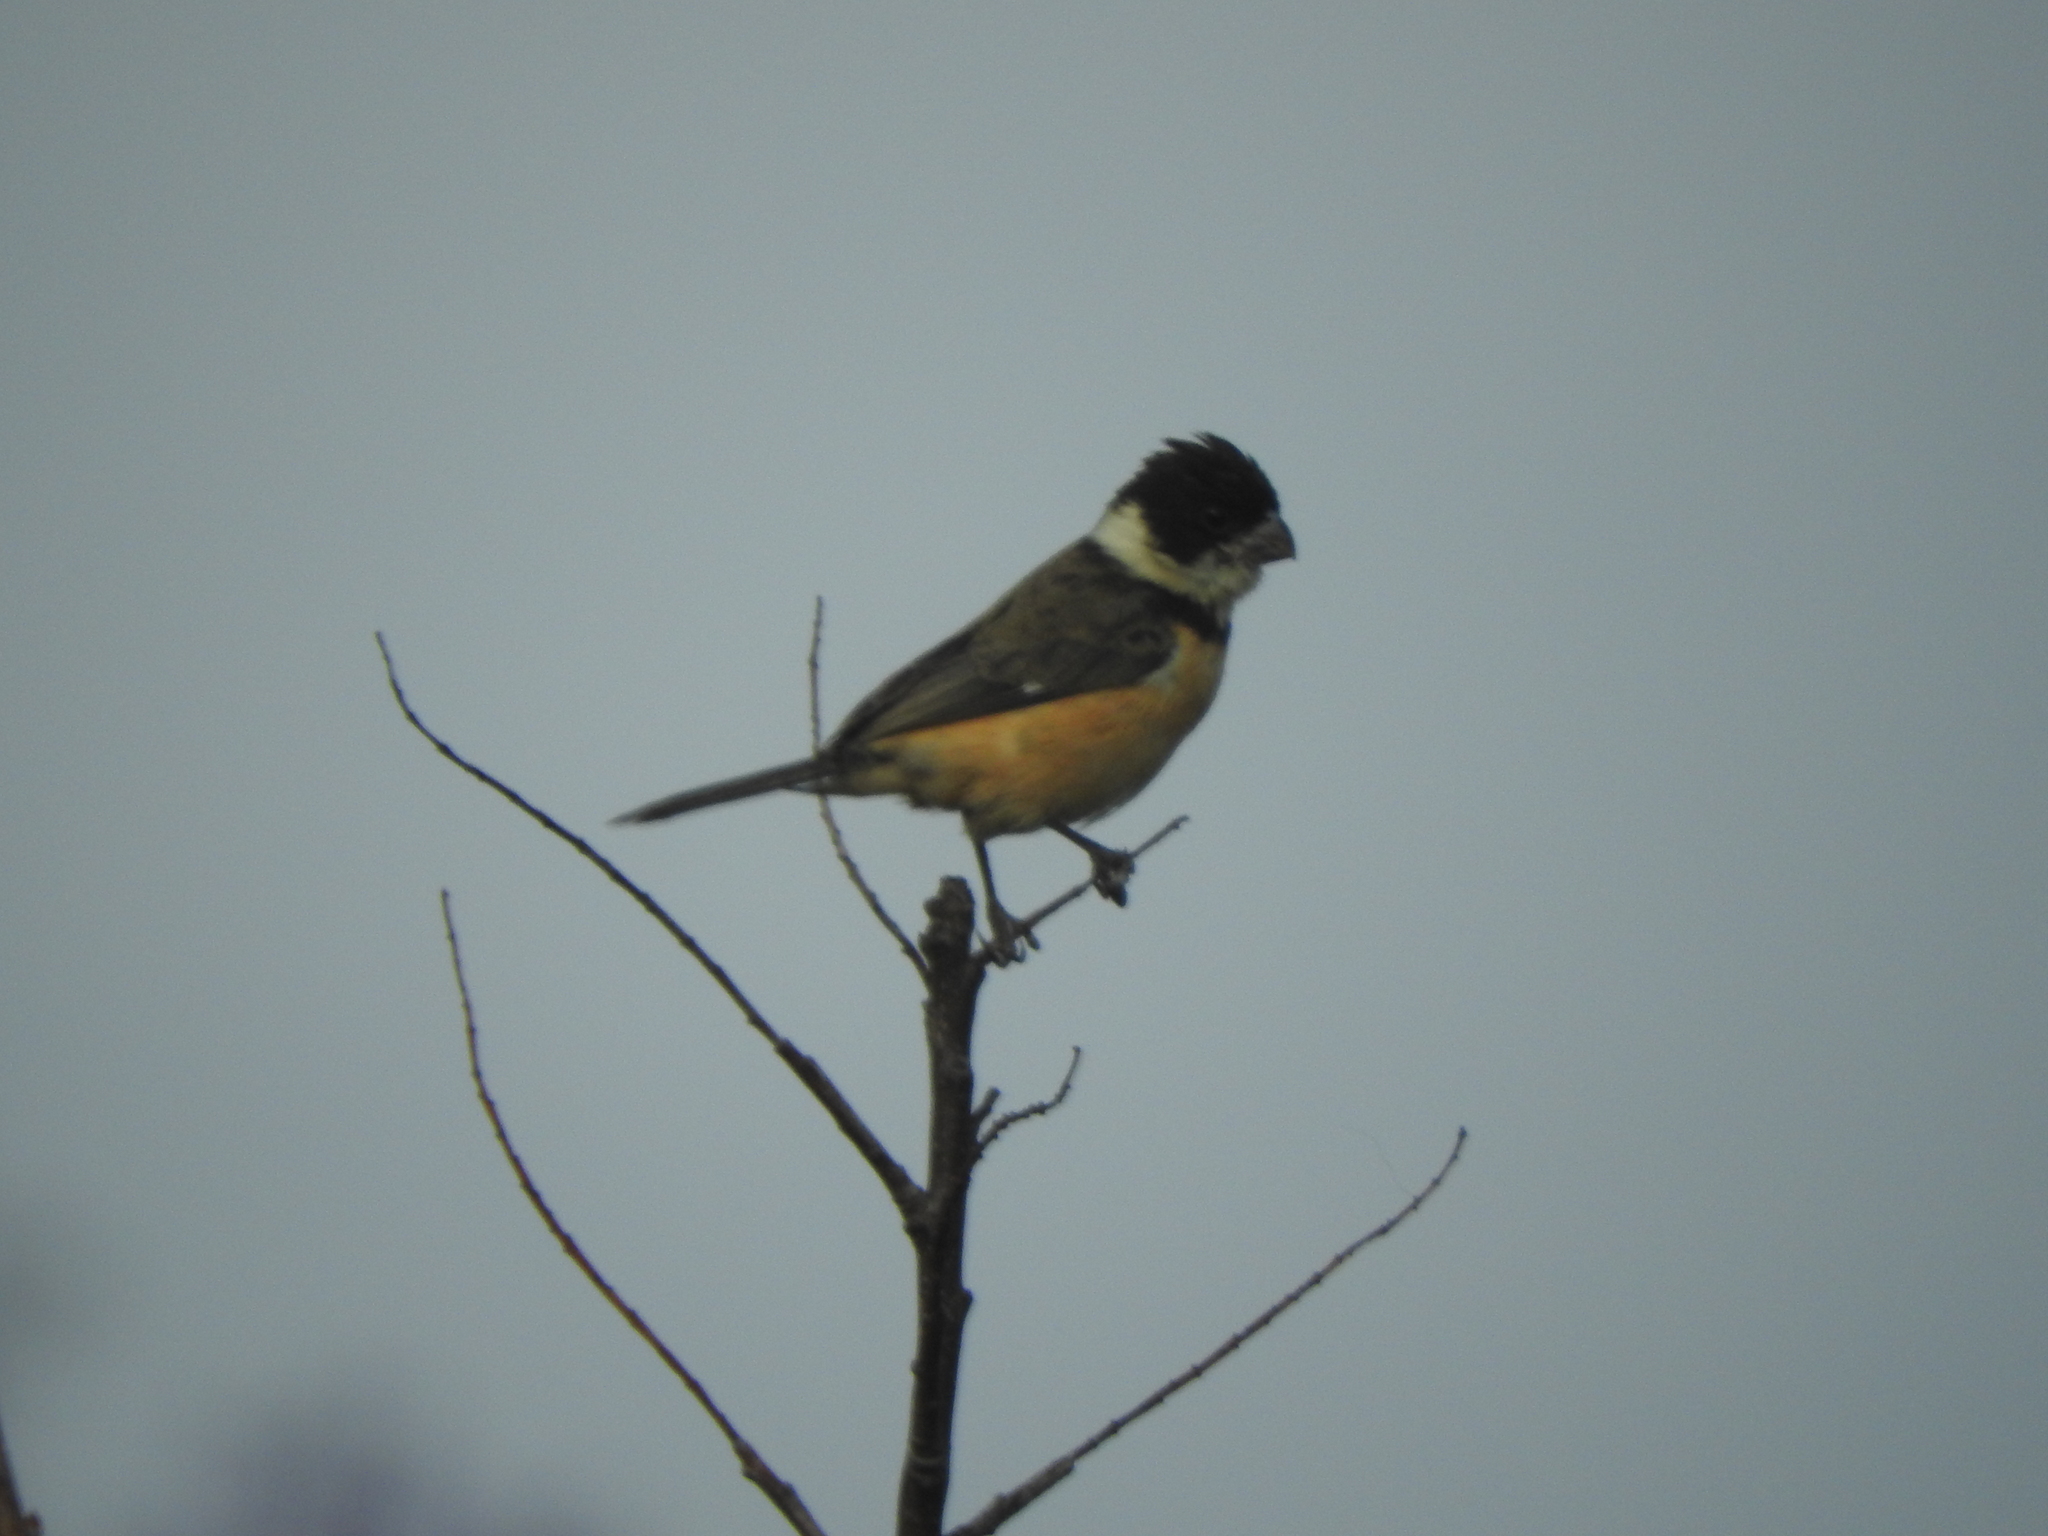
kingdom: Animalia
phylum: Chordata
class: Aves
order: Passeriformes
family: Thraupidae
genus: Sporophila
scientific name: Sporophila torqueola
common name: White-collared seedeater
